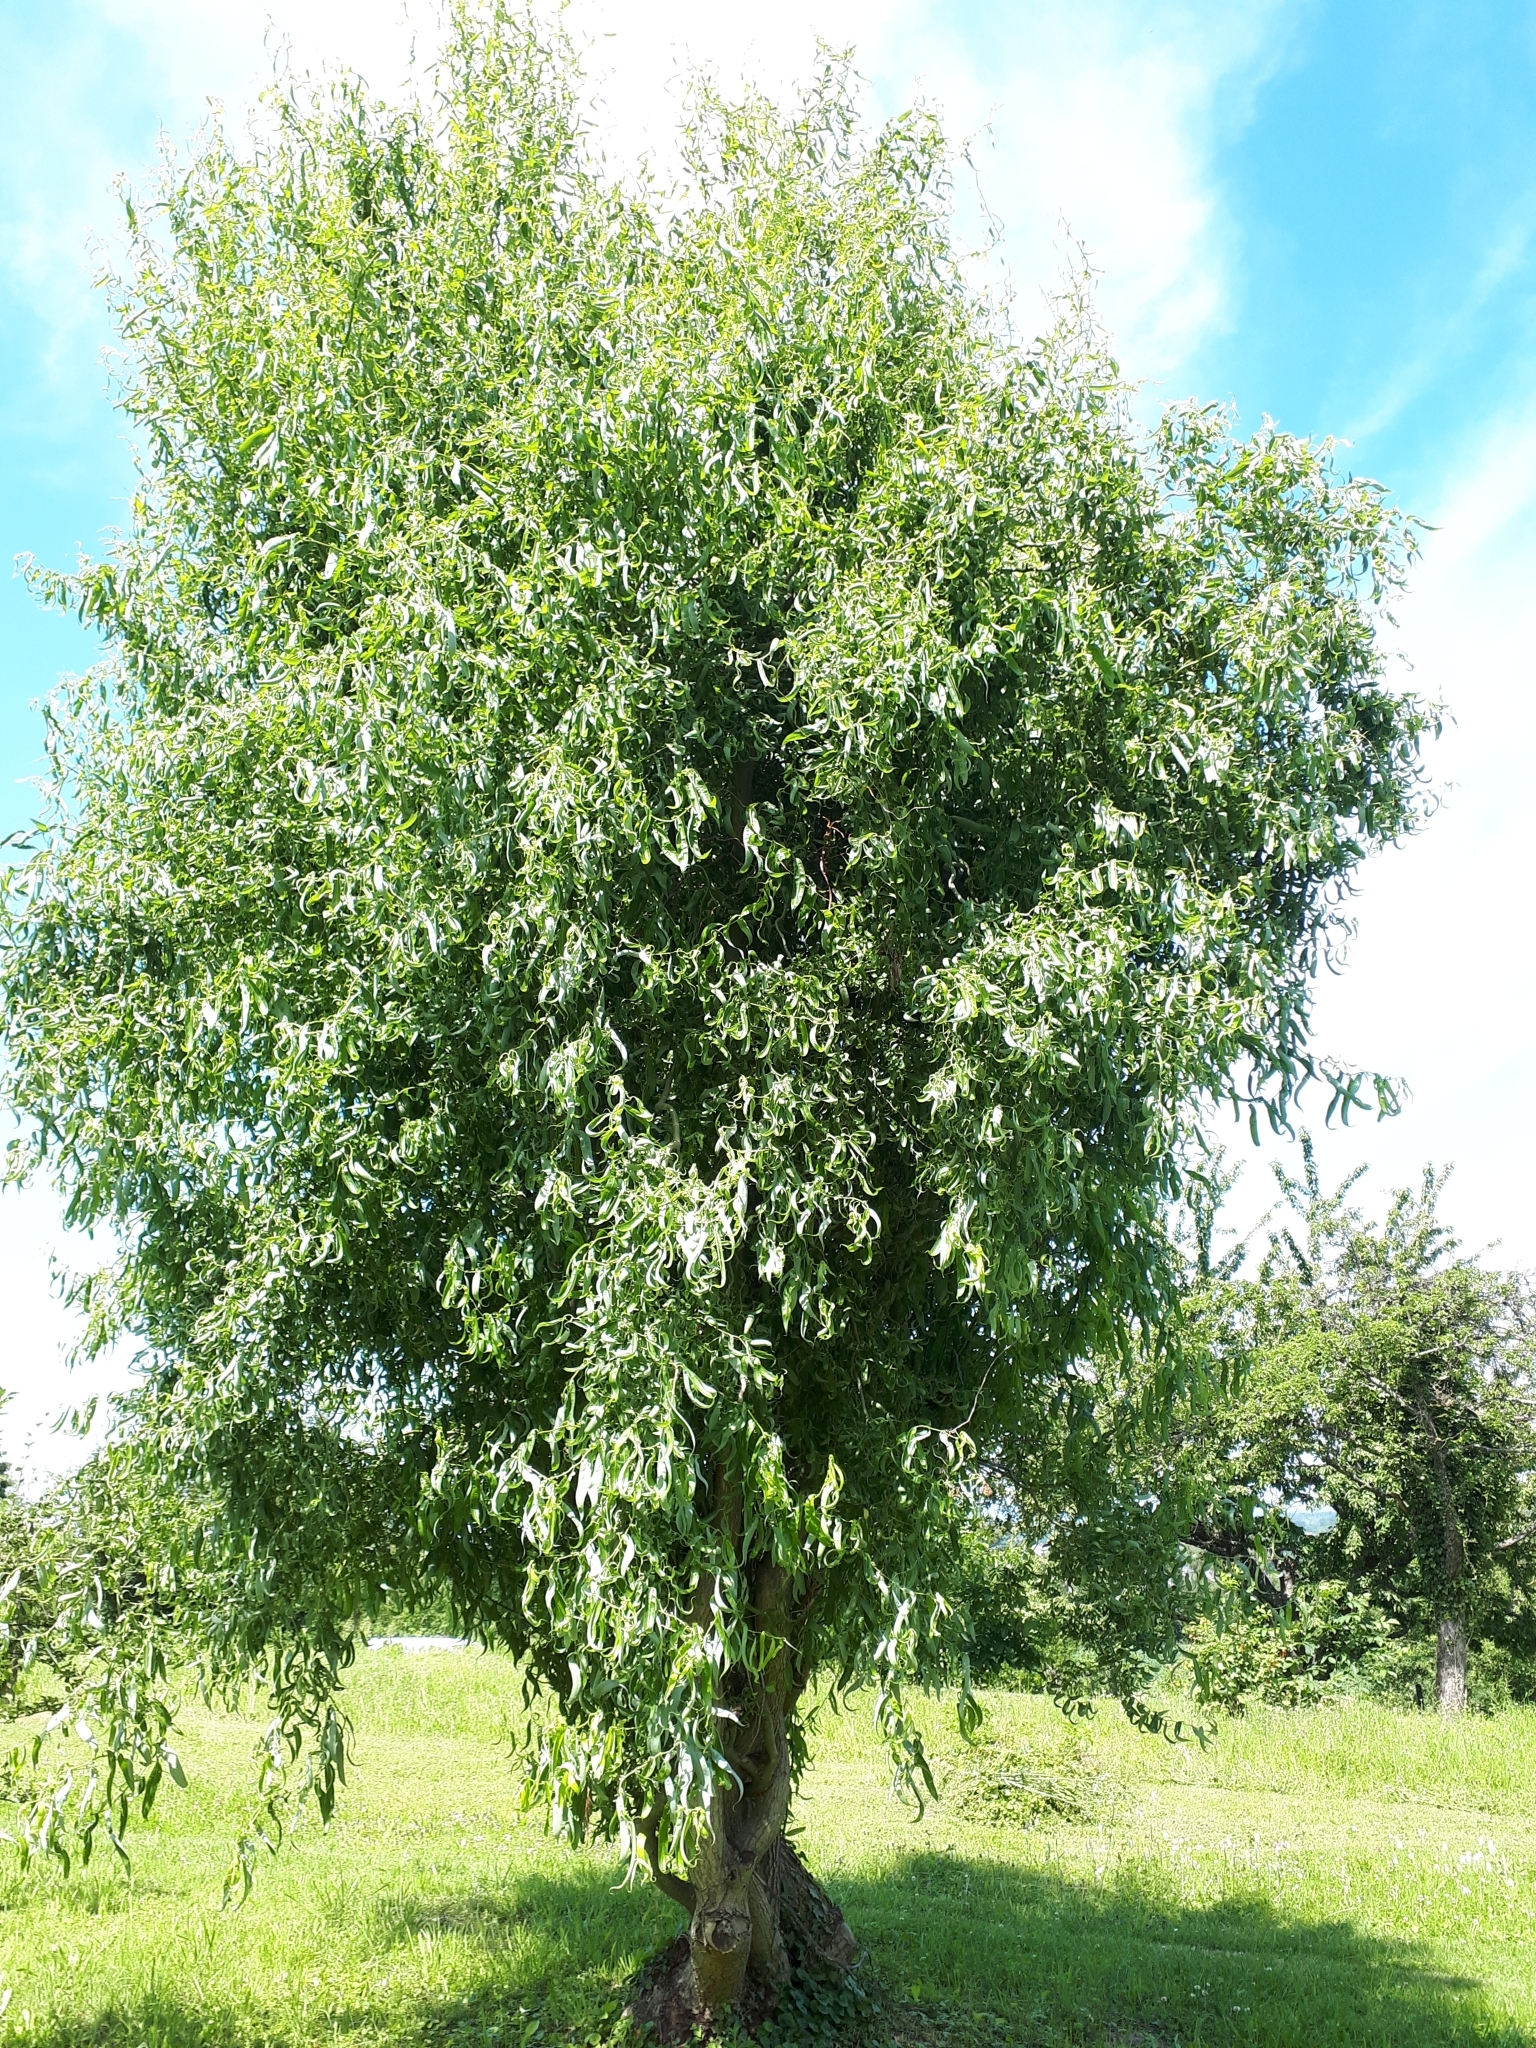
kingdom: Plantae
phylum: Tracheophyta
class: Magnoliopsida
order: Malpighiales
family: Salicaceae
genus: Salix
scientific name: Salix
